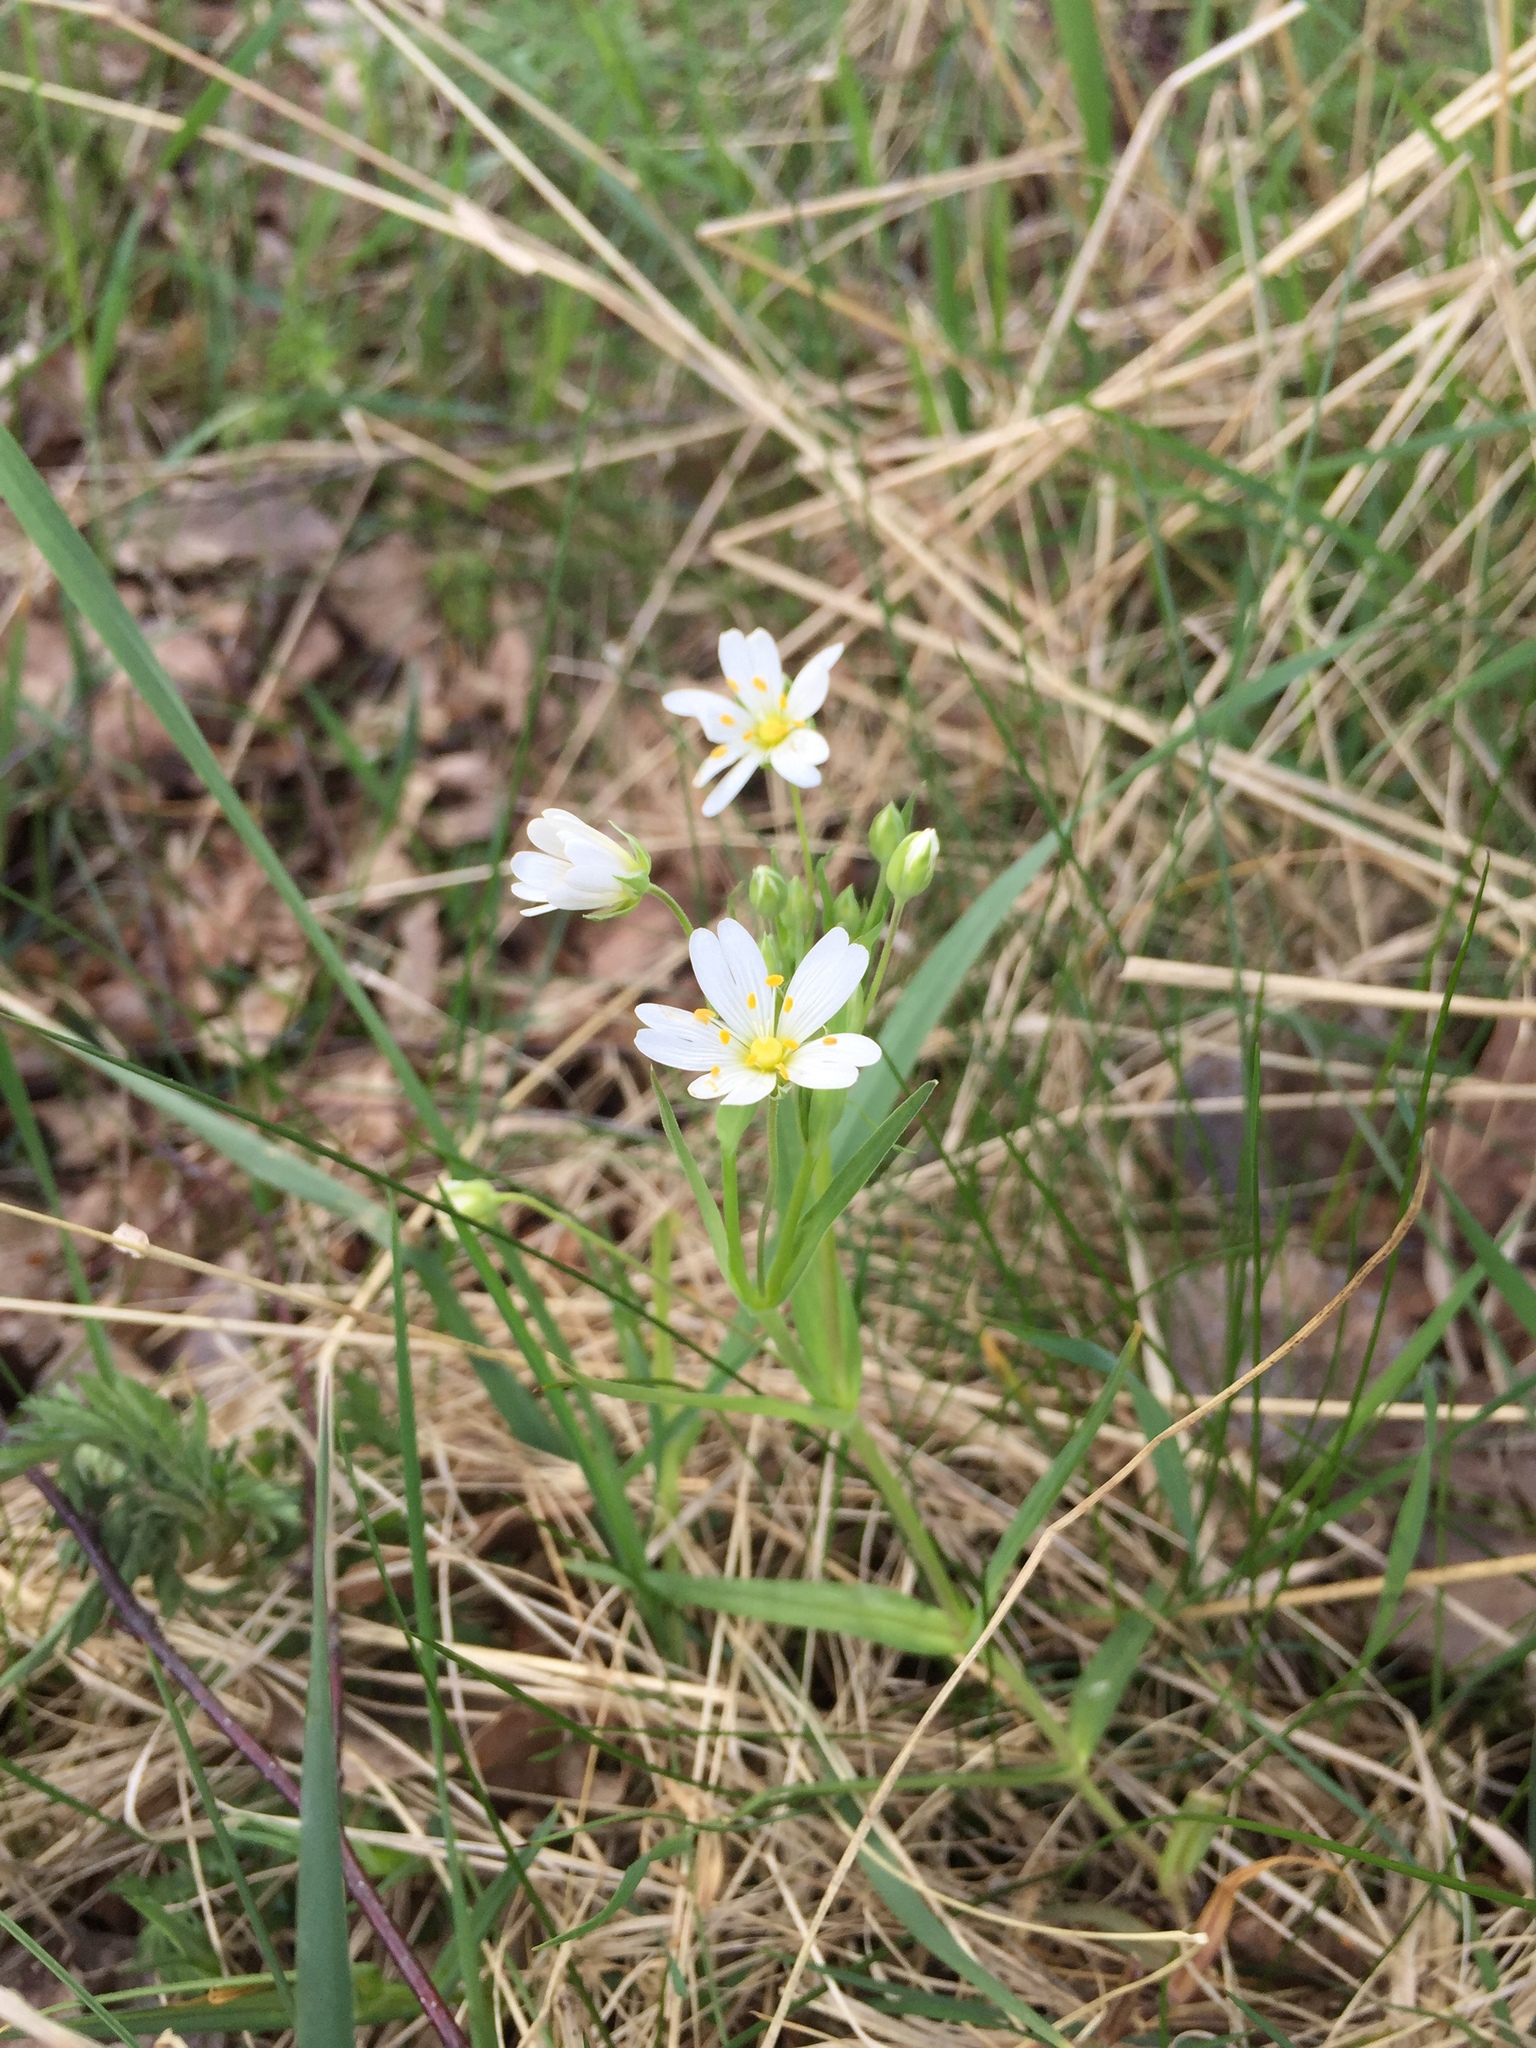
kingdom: Plantae
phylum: Tracheophyta
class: Magnoliopsida
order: Caryophyllales
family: Caryophyllaceae
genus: Rabelera
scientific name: Rabelera holostea
